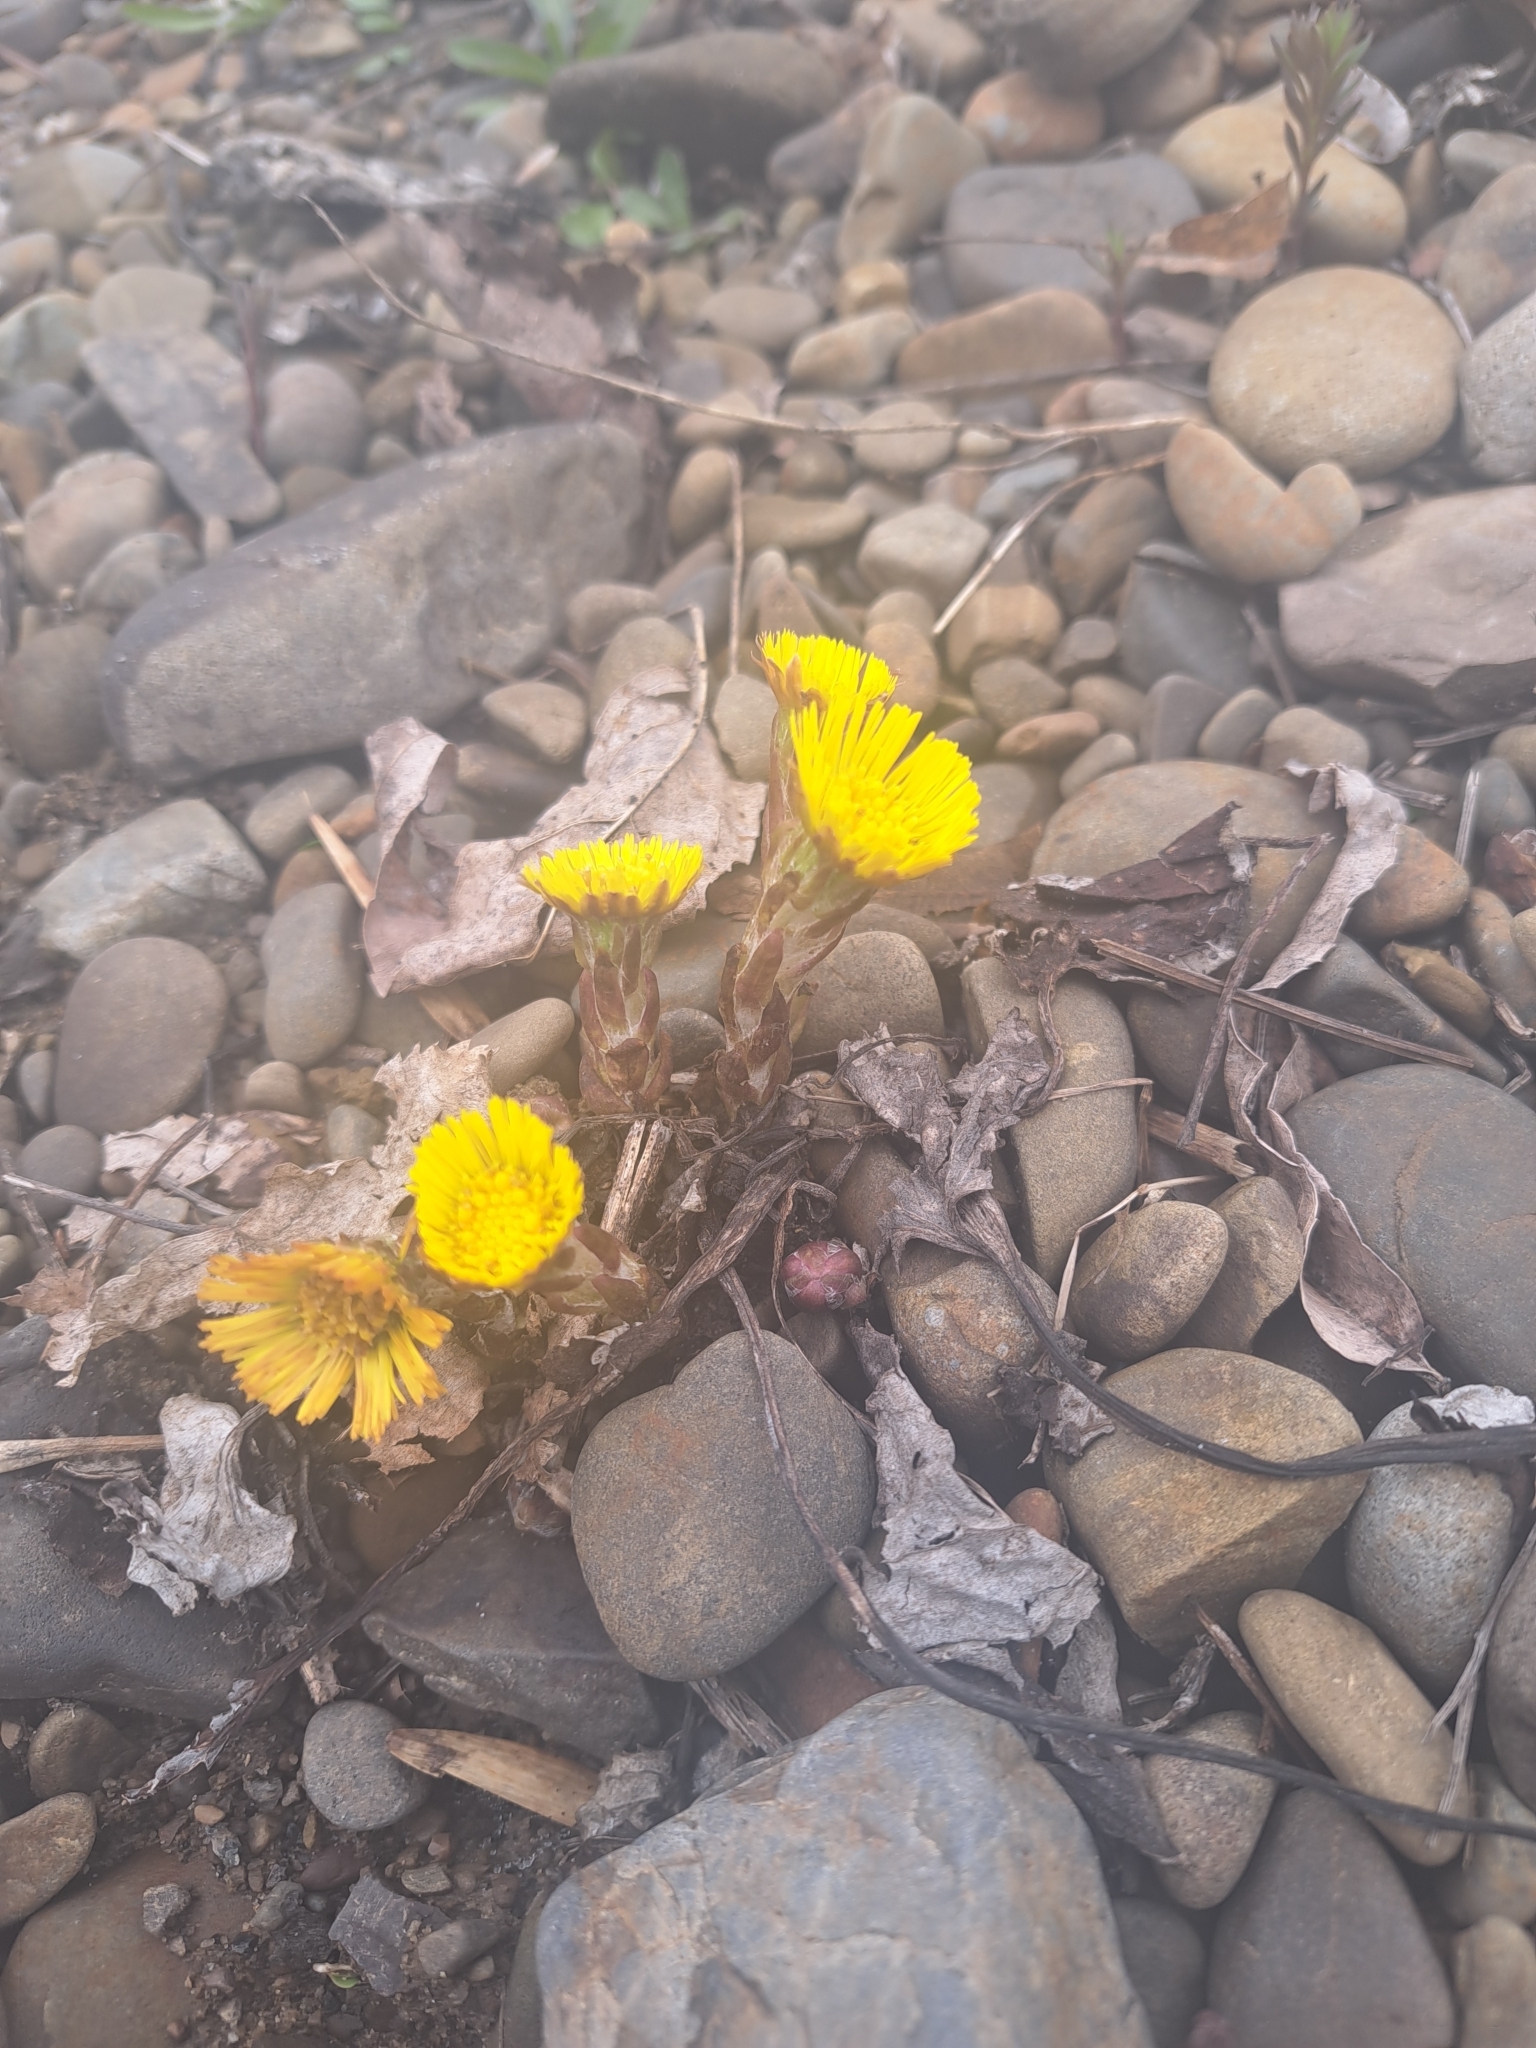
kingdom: Plantae
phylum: Tracheophyta
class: Magnoliopsida
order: Asterales
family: Asteraceae
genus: Tussilago
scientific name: Tussilago farfara
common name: Coltsfoot
